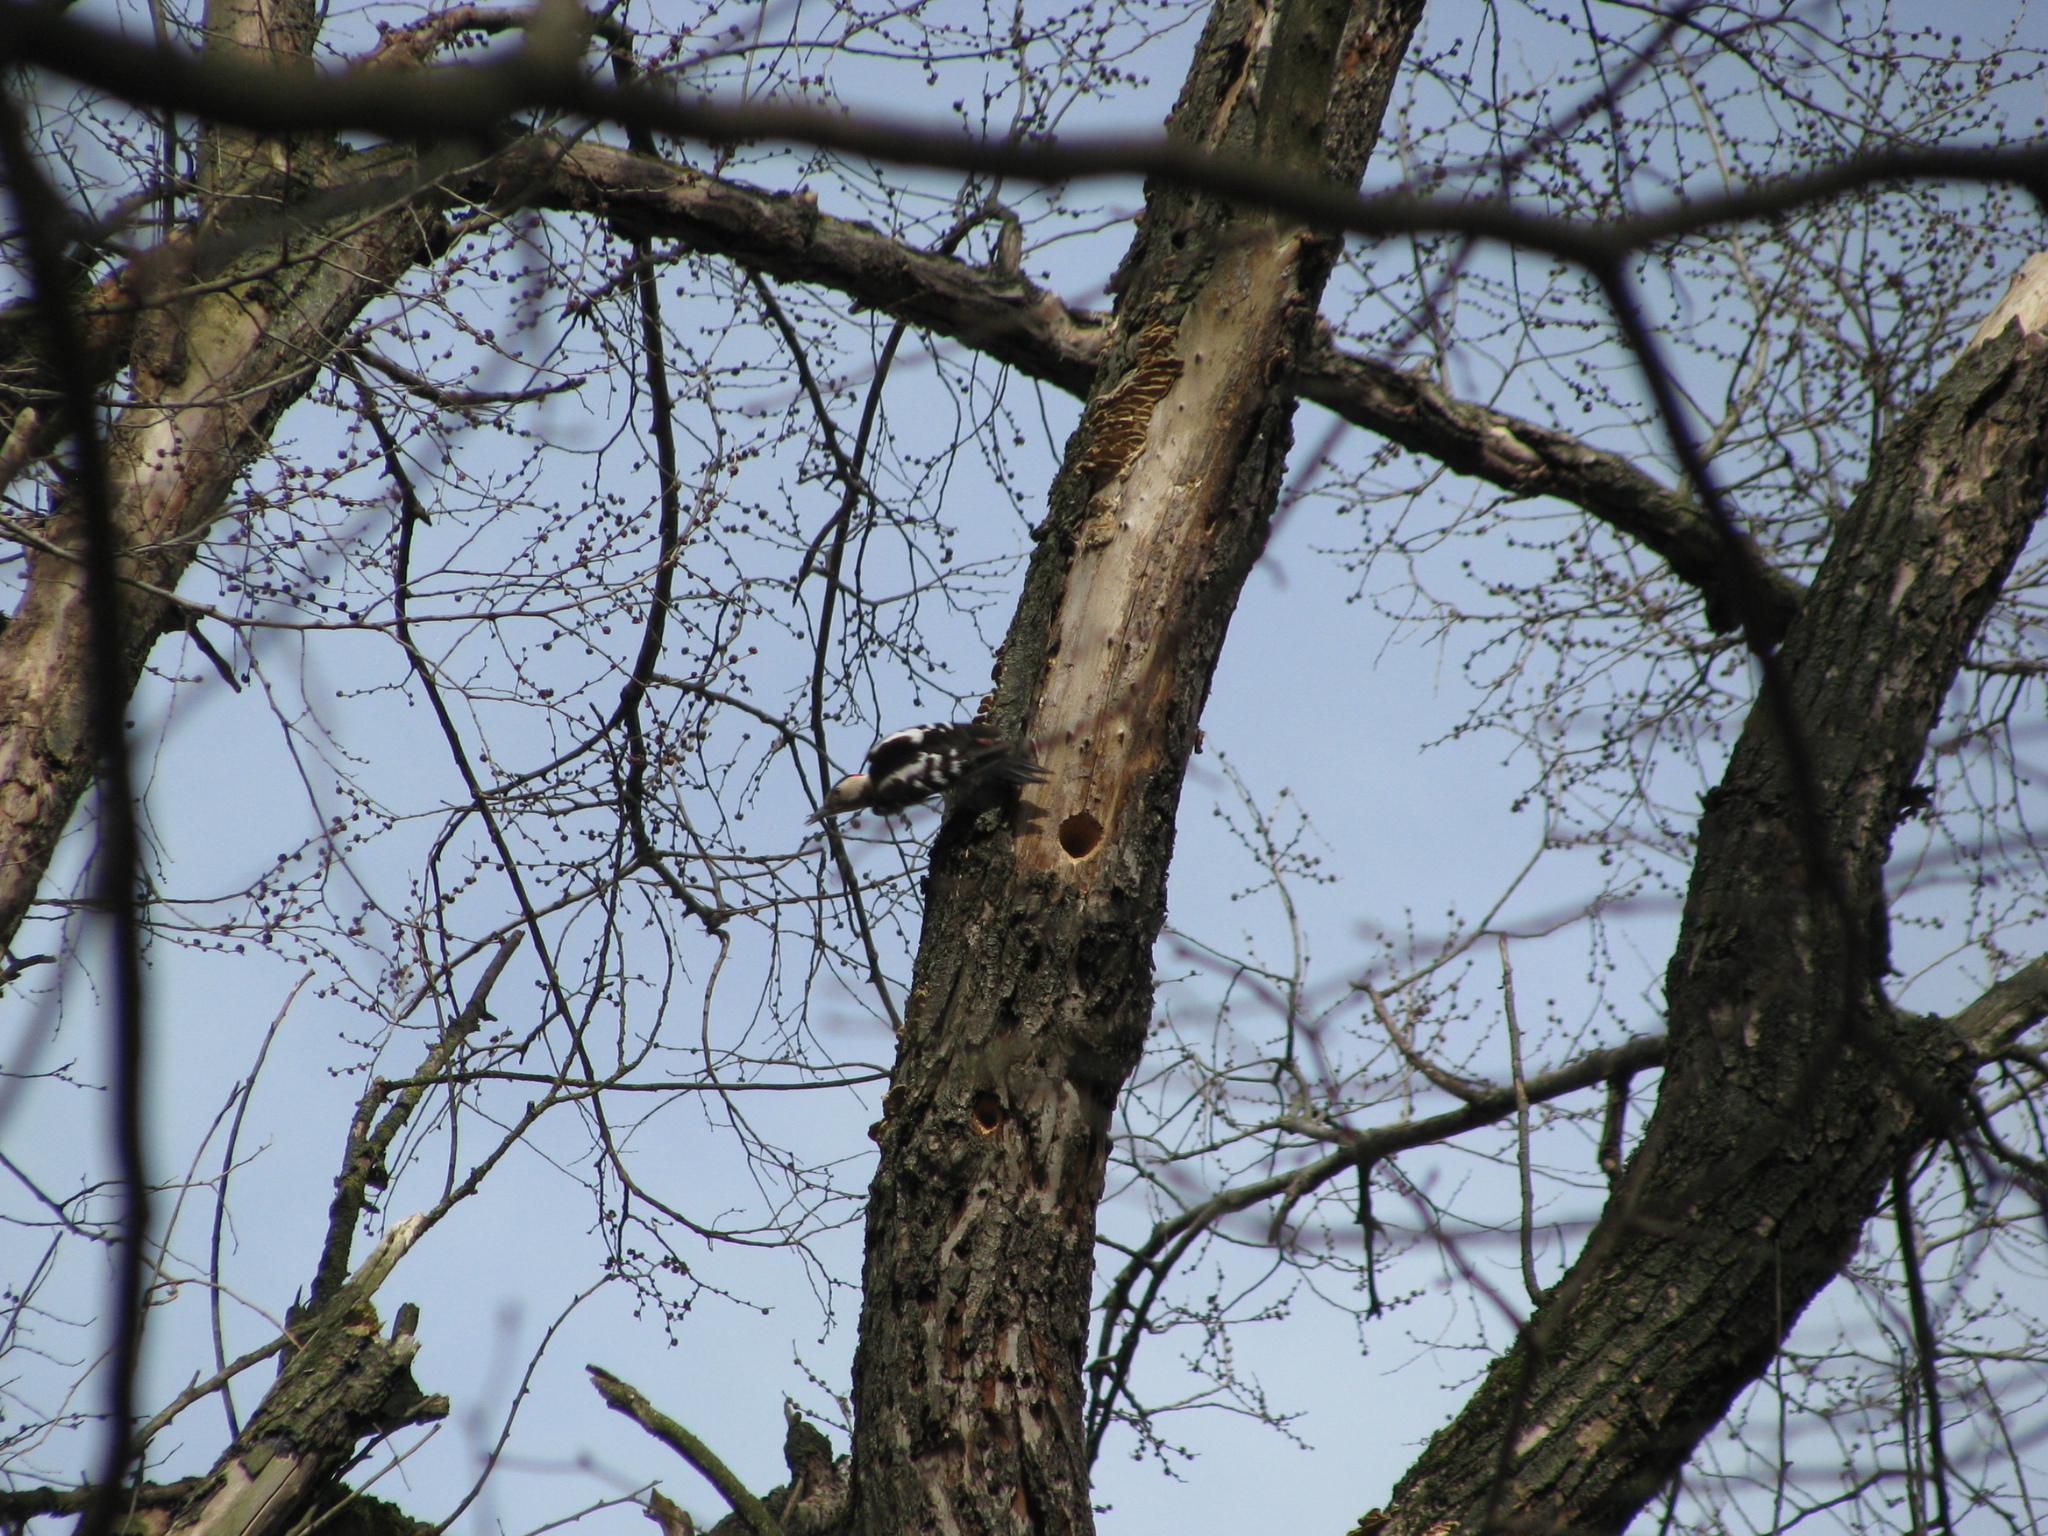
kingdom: Animalia
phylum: Chordata
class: Aves
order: Piciformes
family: Picidae
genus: Dendrocopos
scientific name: Dendrocopos syriacus
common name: Syrian woodpecker
